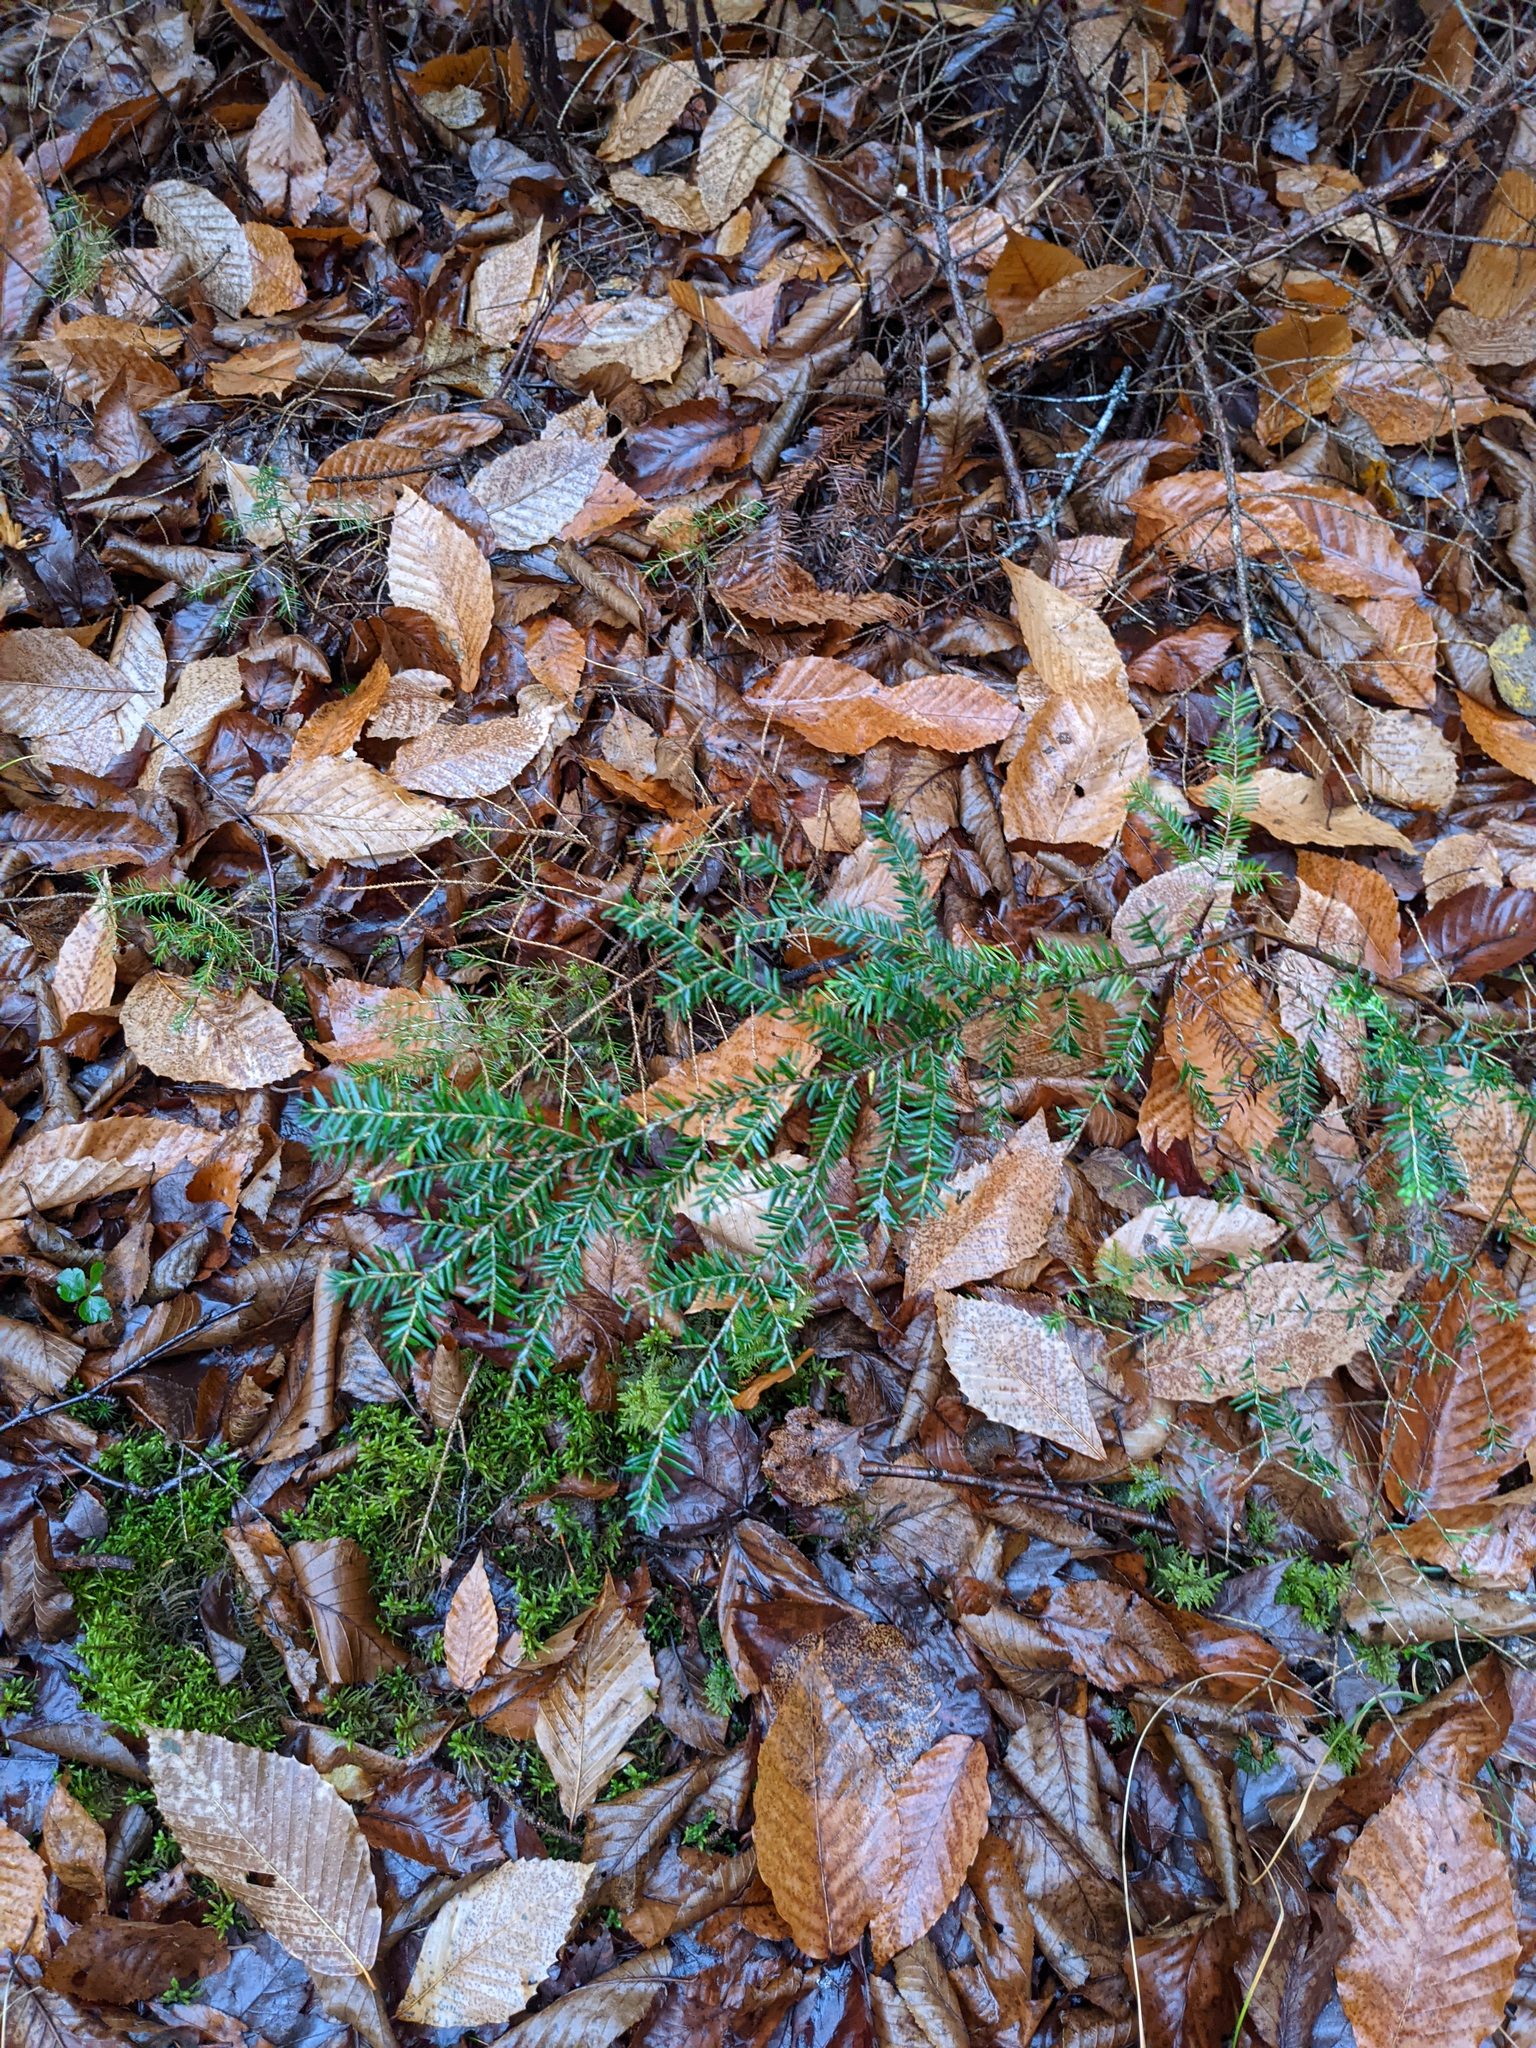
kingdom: Plantae
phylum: Tracheophyta
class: Pinopsida
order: Pinales
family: Pinaceae
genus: Tsuga
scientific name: Tsuga canadensis
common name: Eastern hemlock
